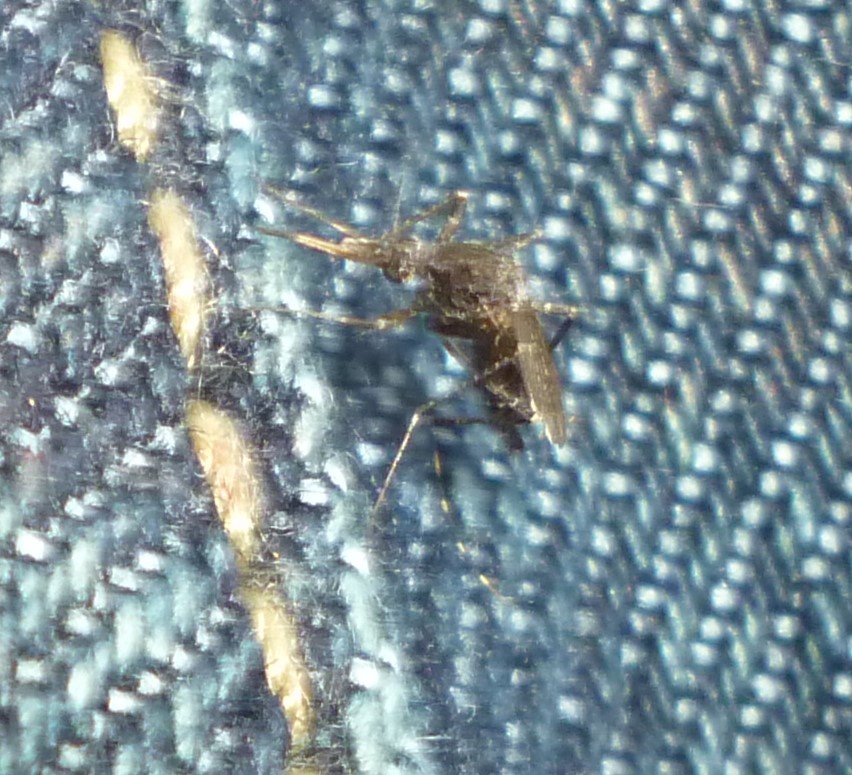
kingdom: Animalia
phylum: Arthropoda
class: Insecta
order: Diptera
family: Culicidae
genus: Psorophora
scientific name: Psorophora columbiae
